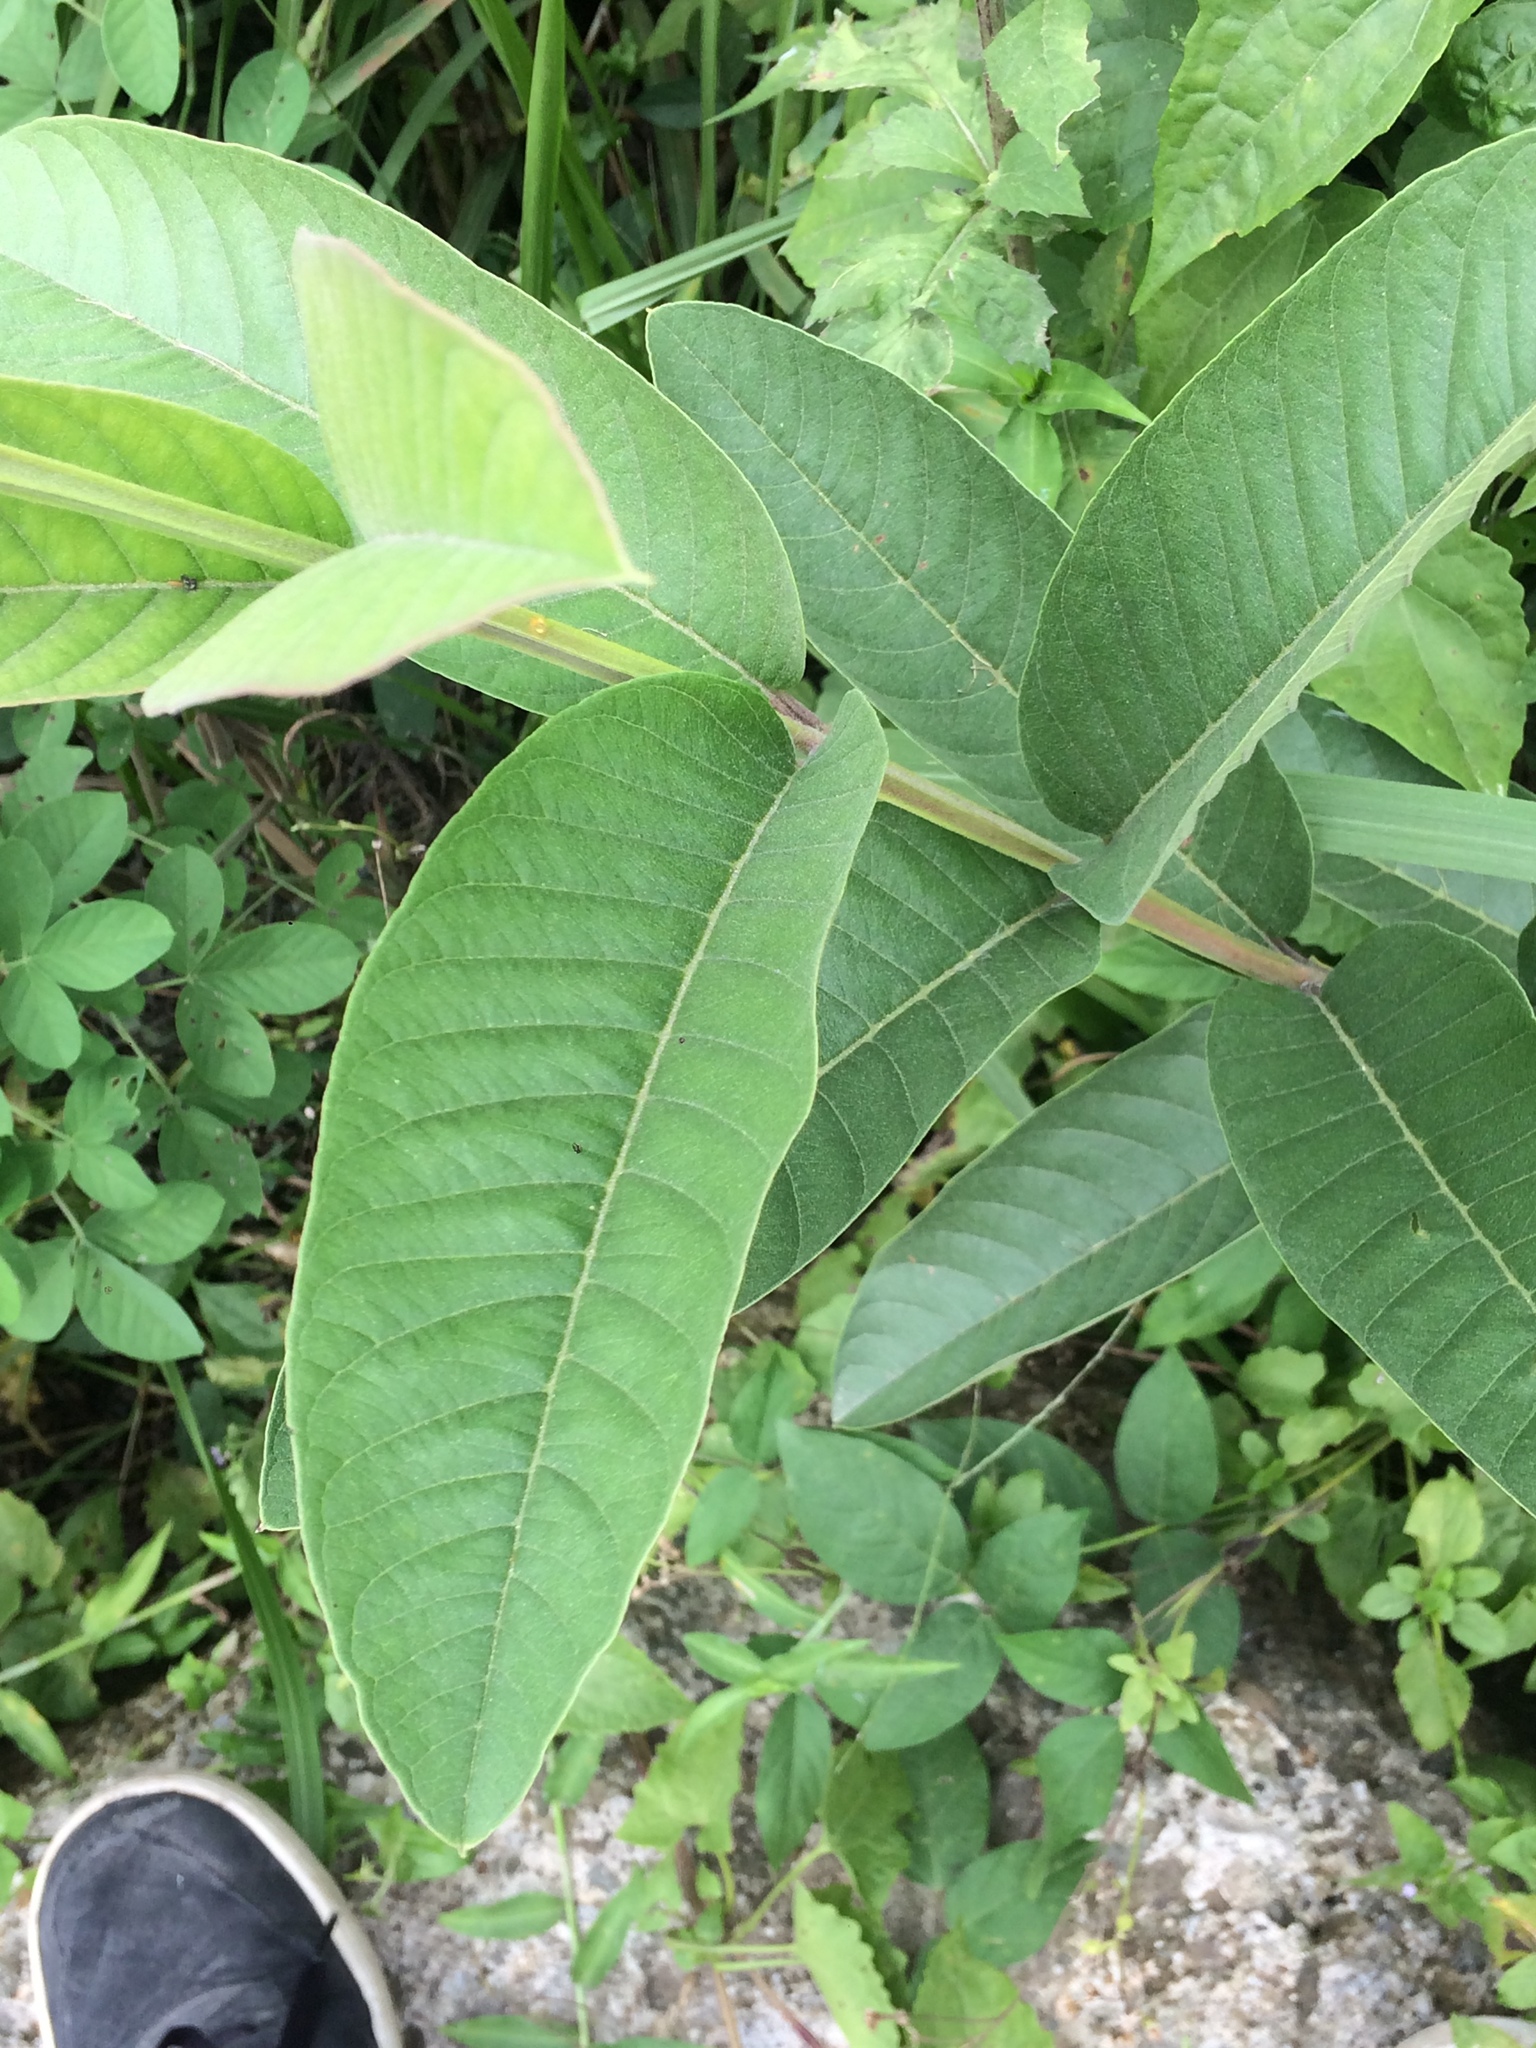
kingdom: Plantae
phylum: Tracheophyta
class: Magnoliopsida
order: Myrtales
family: Myrtaceae
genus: Psidium
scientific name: Psidium guajava
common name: Guava
